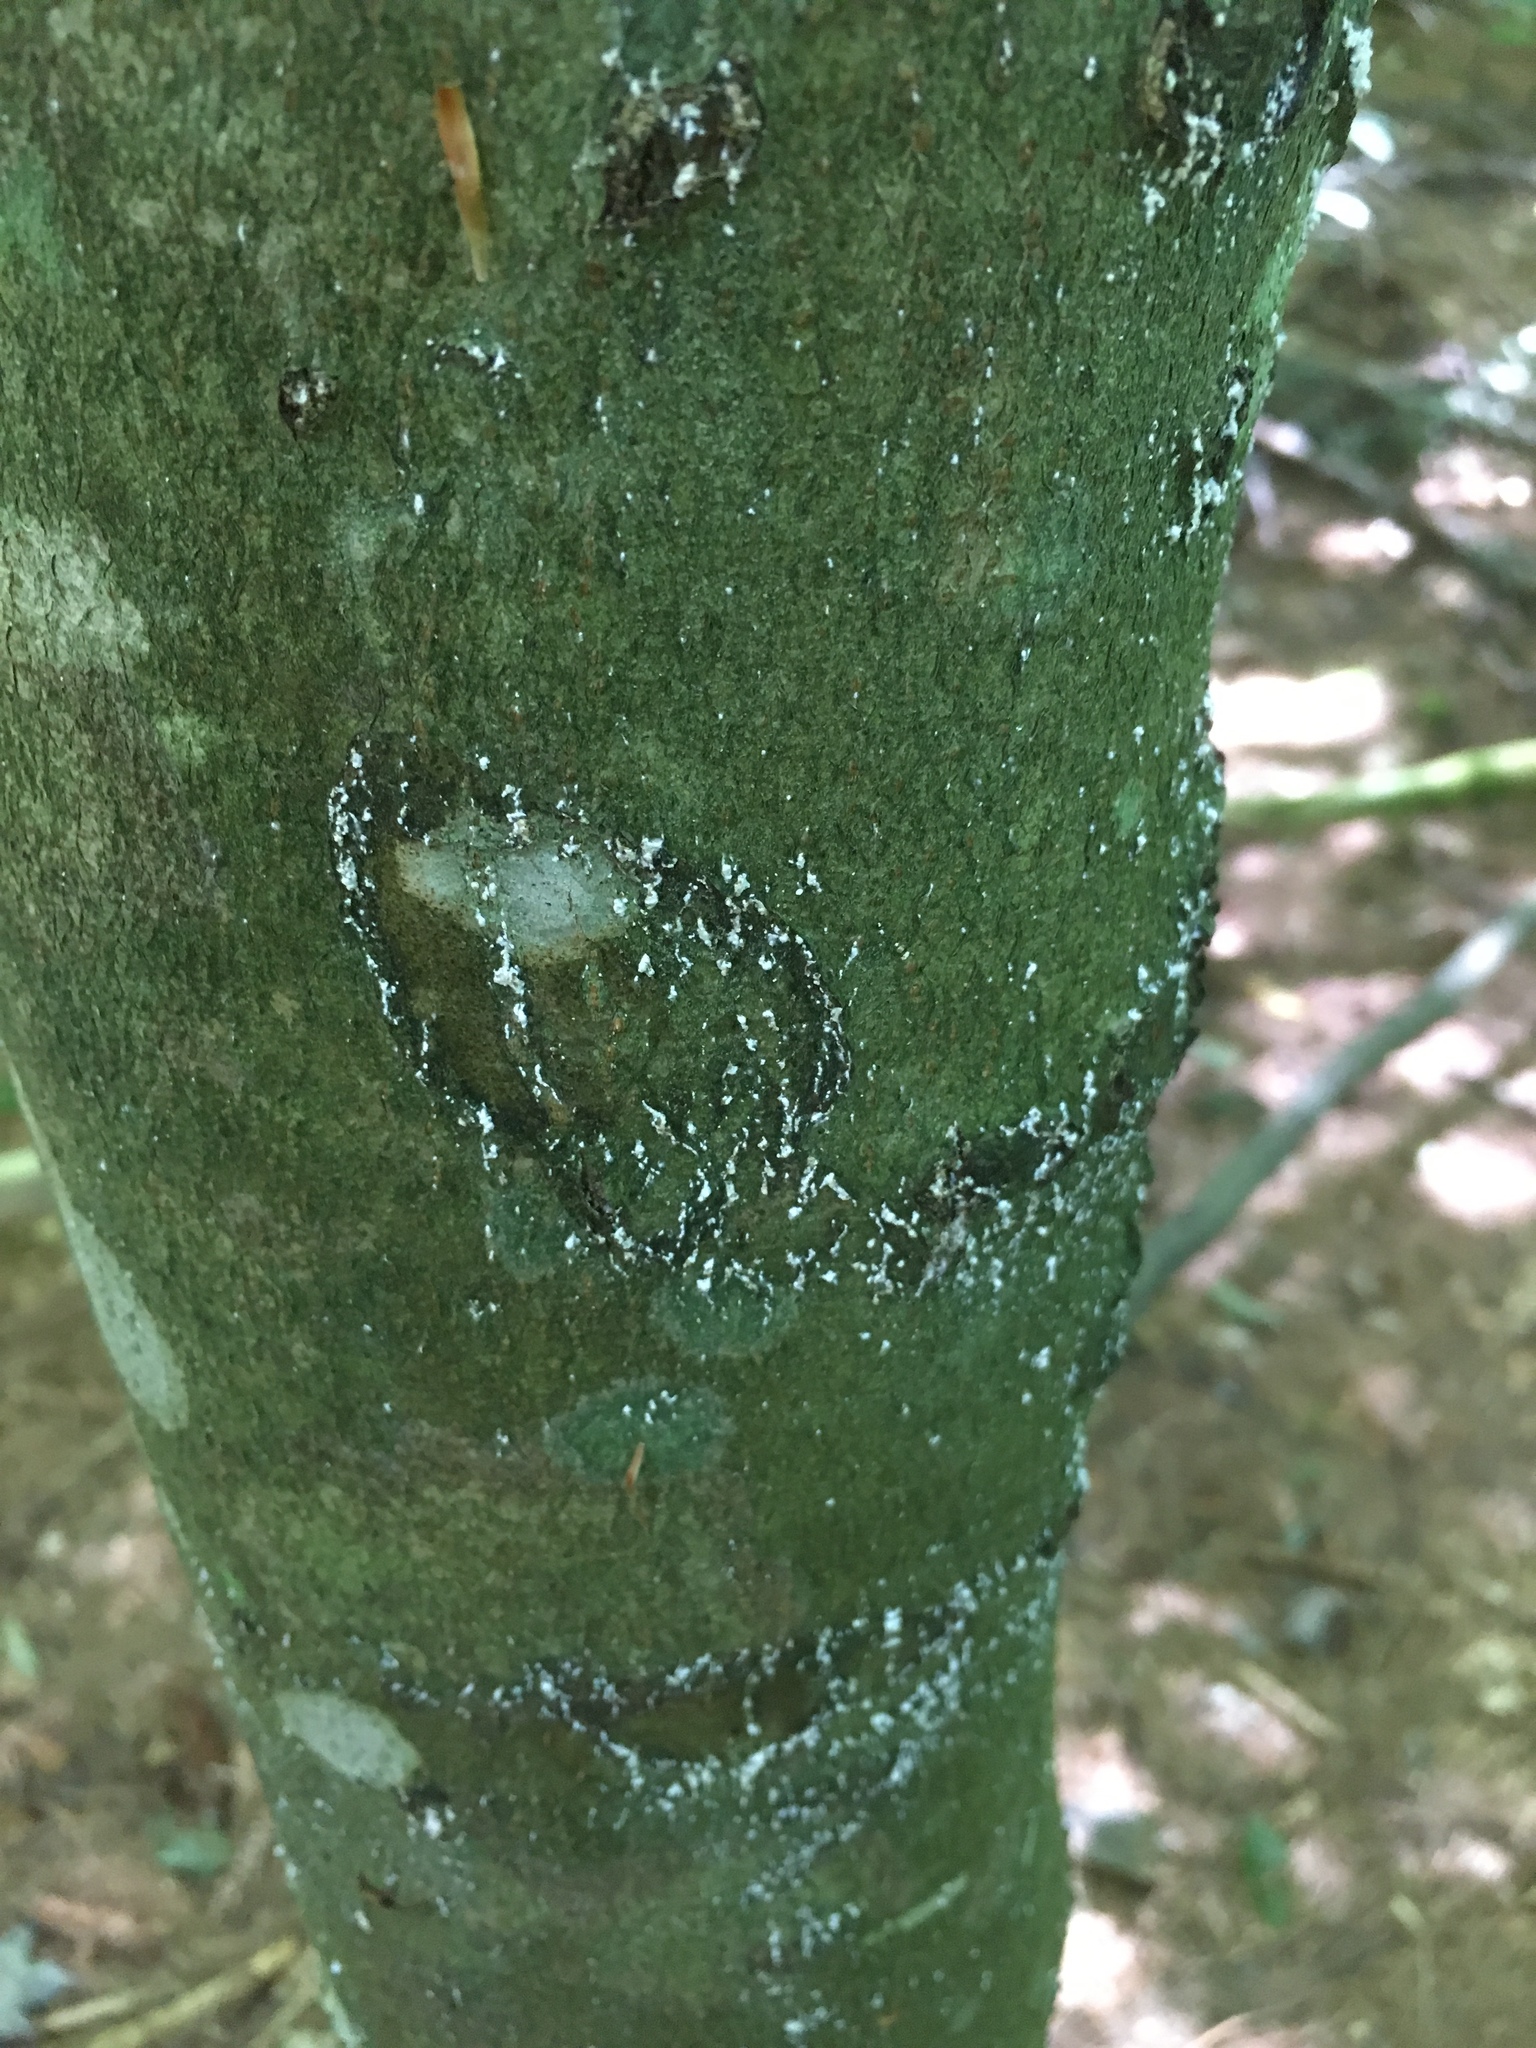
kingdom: Animalia
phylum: Arthropoda
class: Insecta
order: Hemiptera
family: Eriococcidae
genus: Cryptococcus
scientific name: Cryptococcus fagisuga
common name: Beech scale
